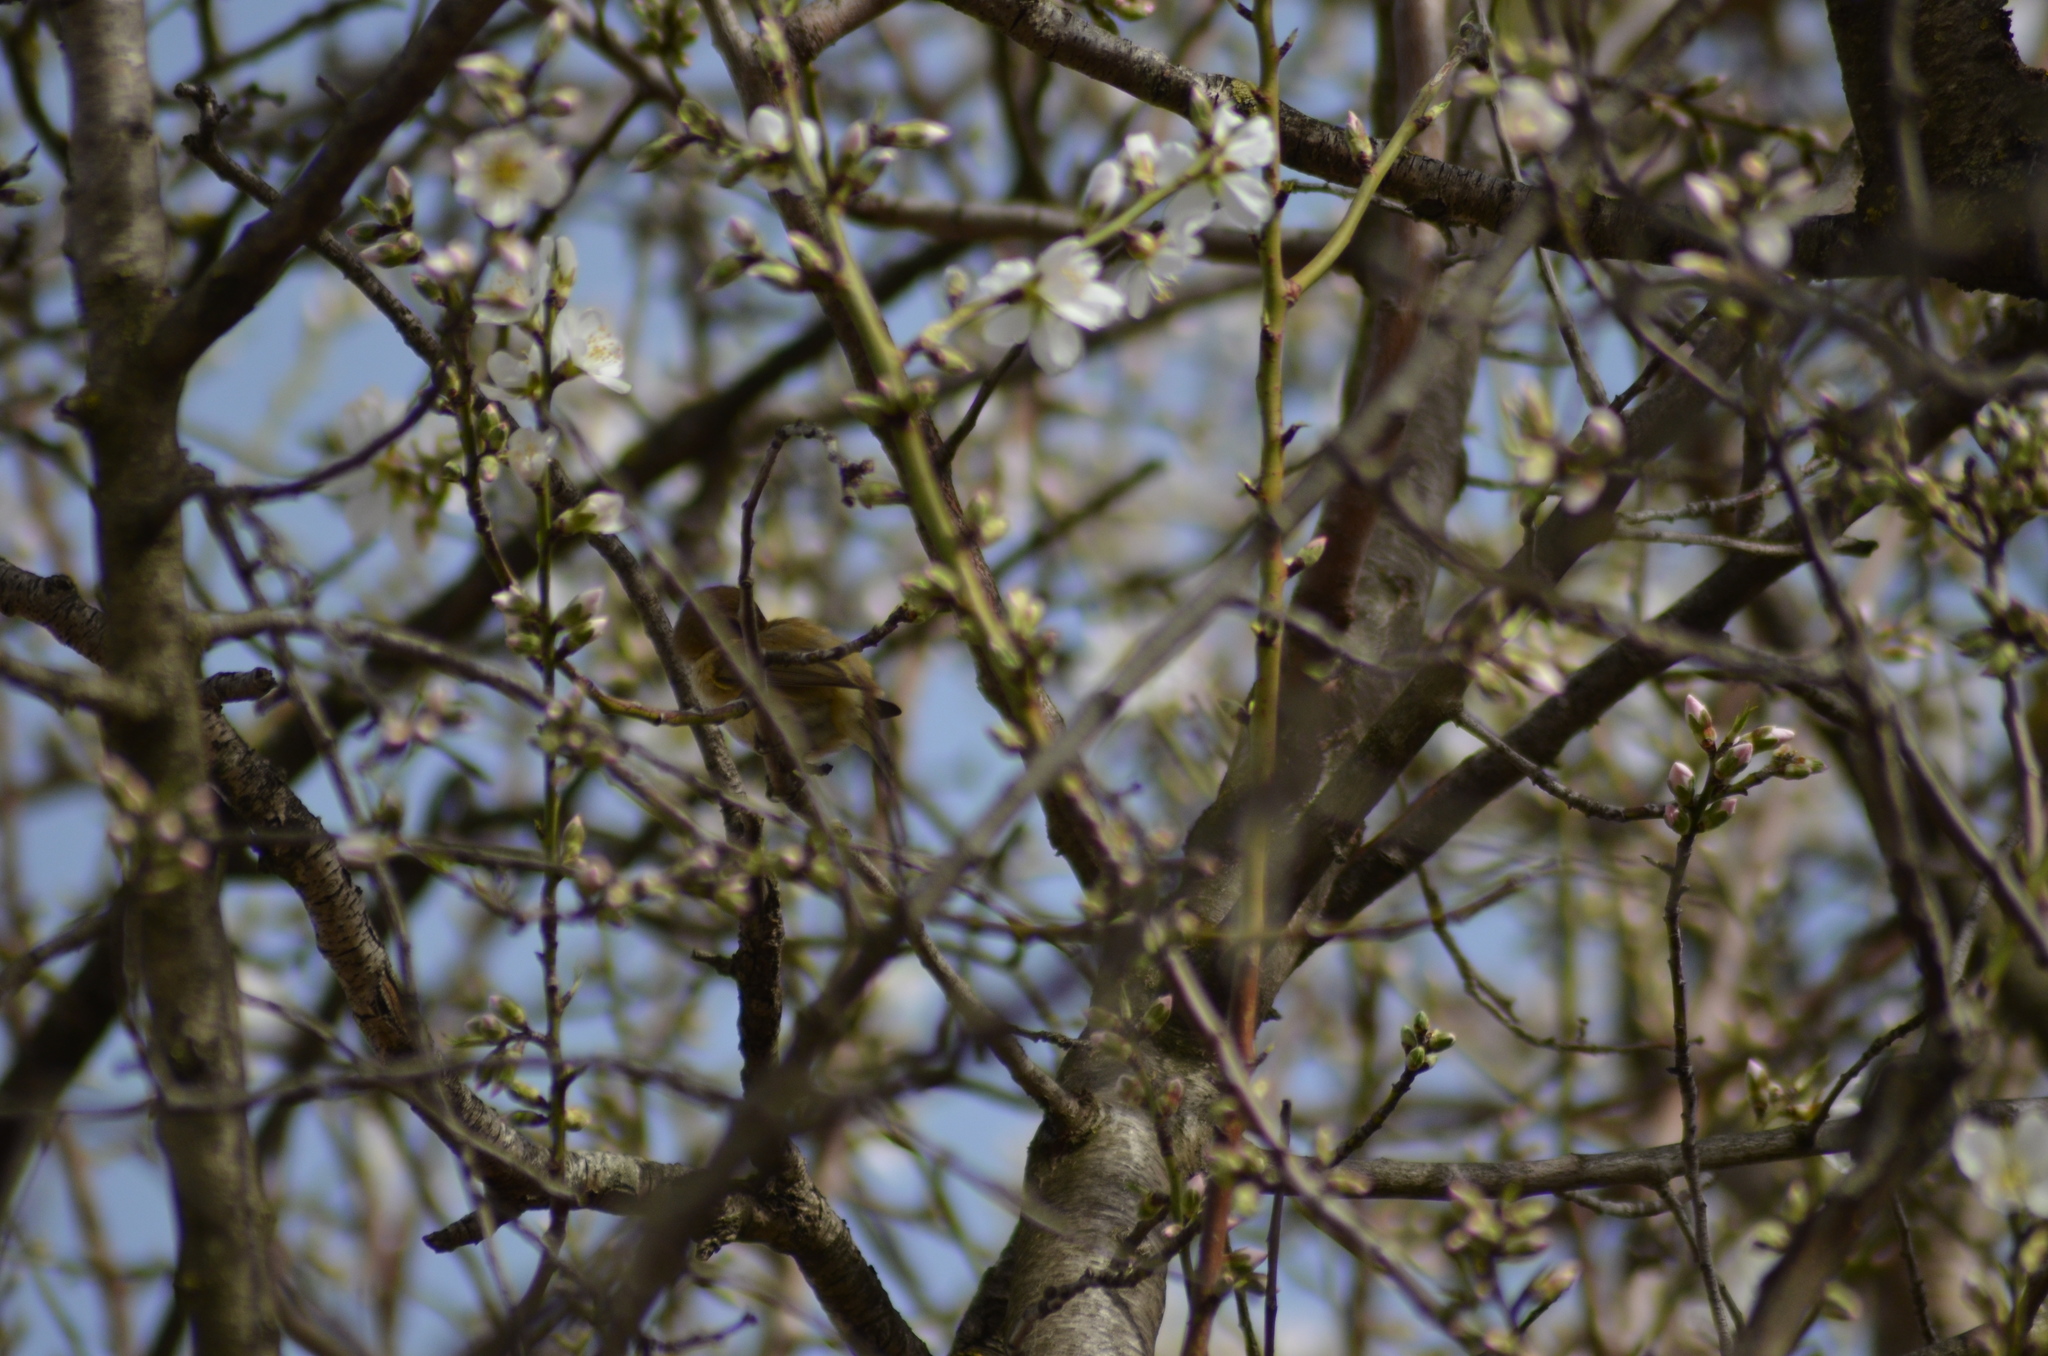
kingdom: Animalia
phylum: Chordata
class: Aves
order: Passeriformes
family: Phylloscopidae
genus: Phylloscopus
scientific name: Phylloscopus collybita
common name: Common chiffchaff
